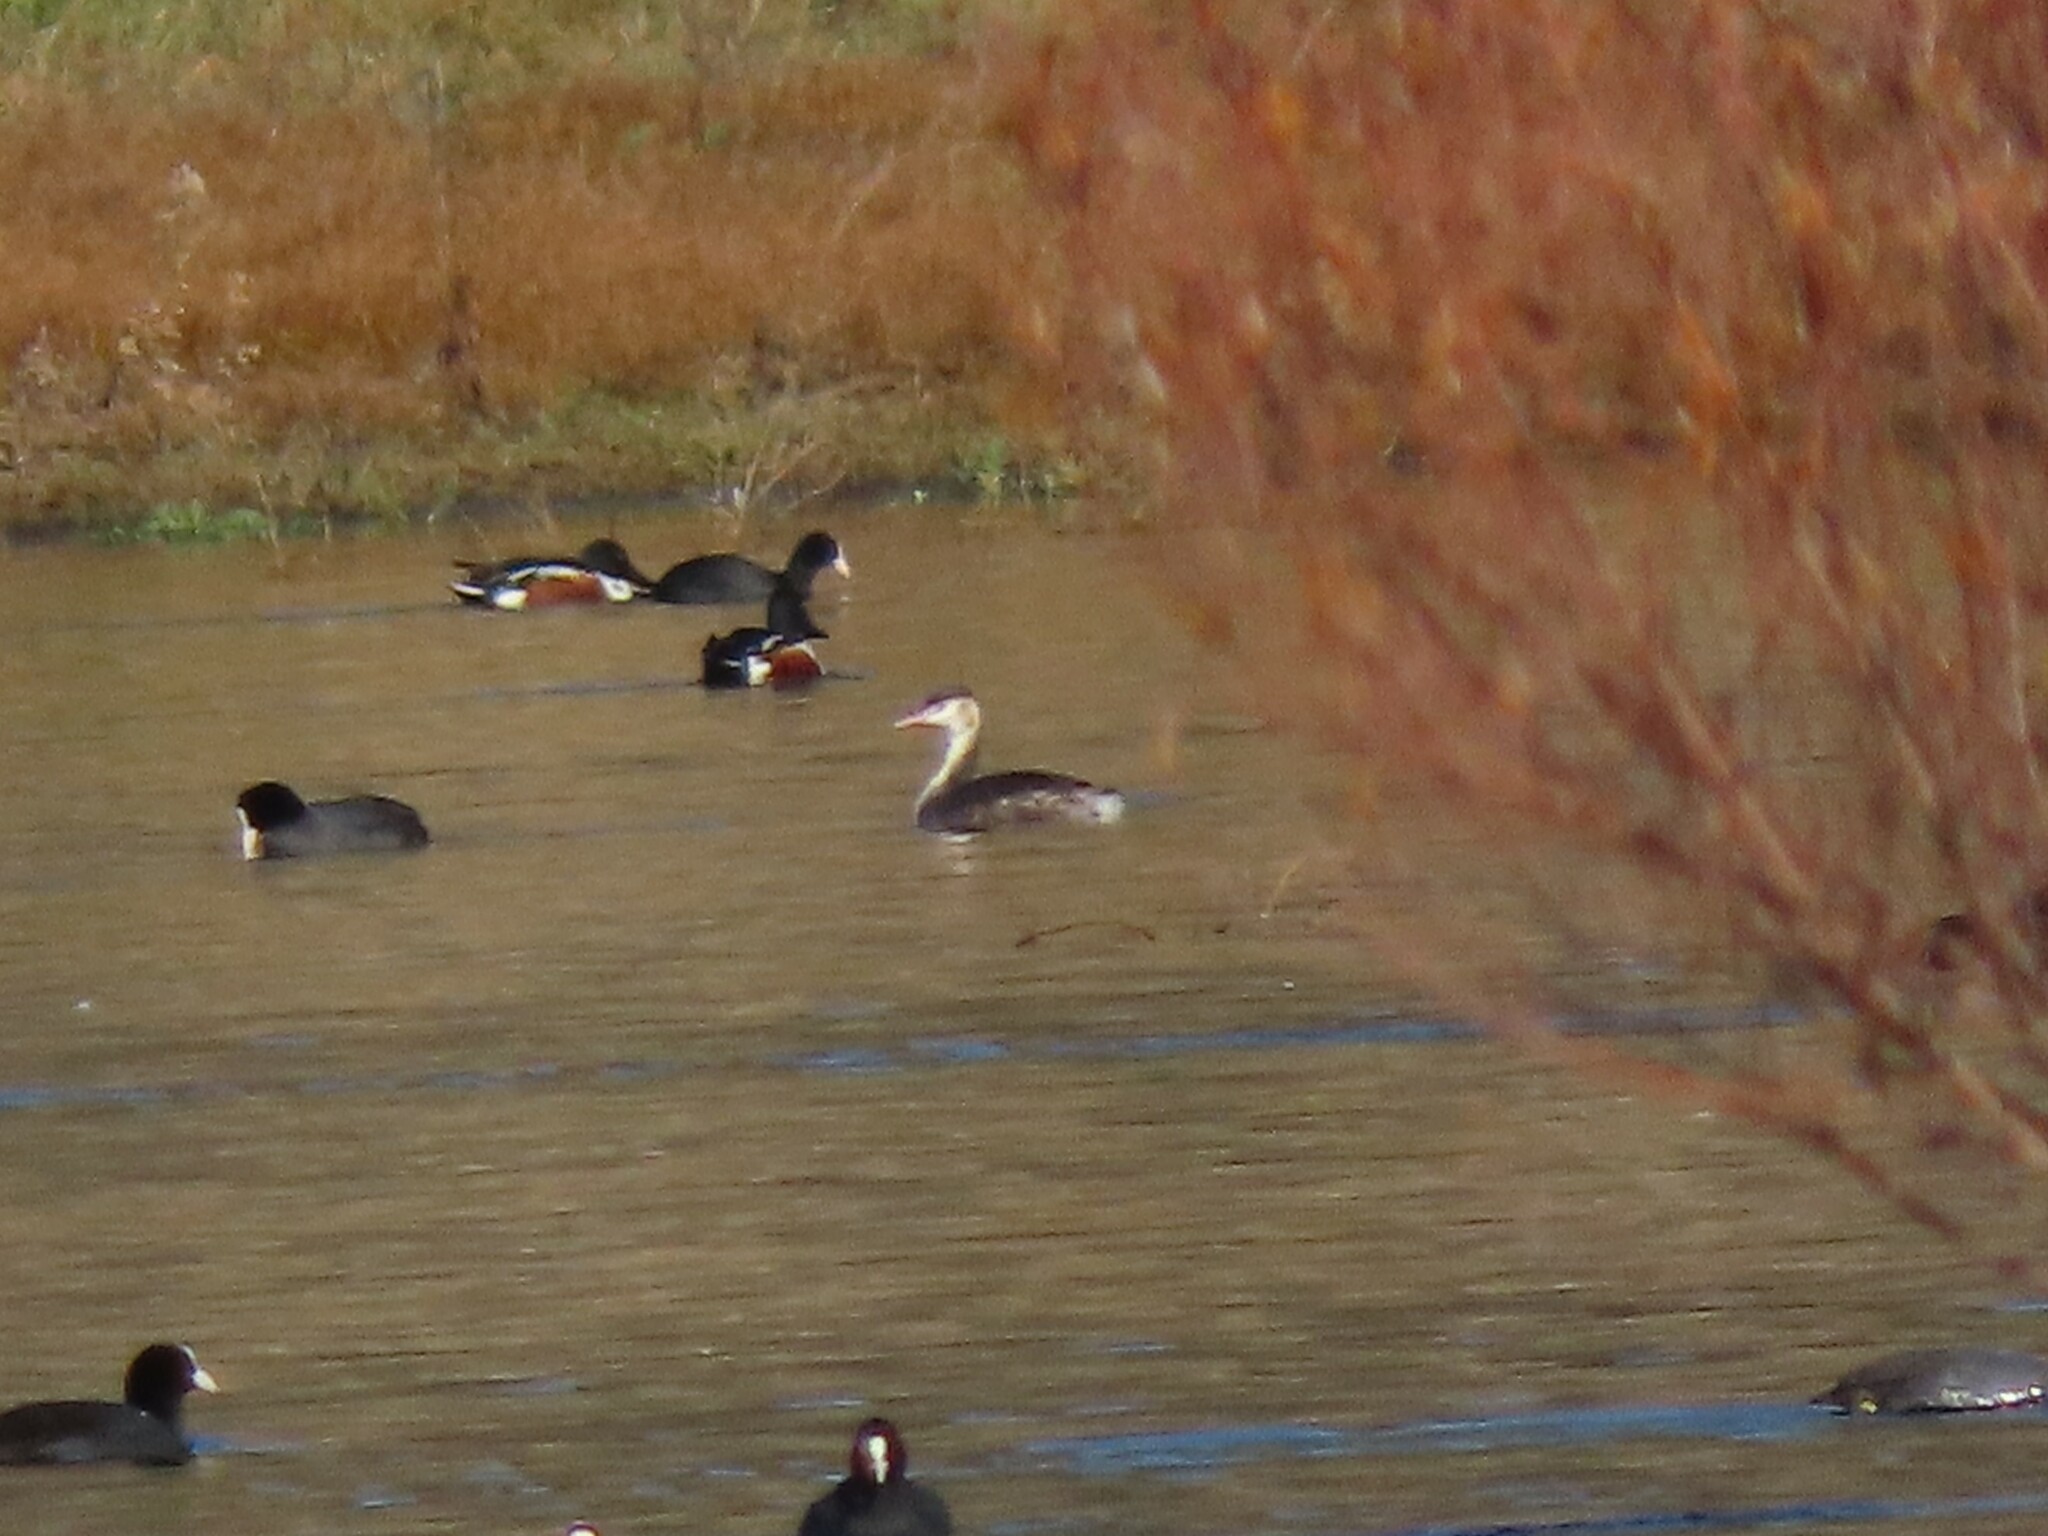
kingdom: Animalia
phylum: Chordata
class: Aves
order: Podicipediformes
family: Podicipedidae
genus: Podiceps
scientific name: Podiceps cristatus
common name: Great crested grebe
